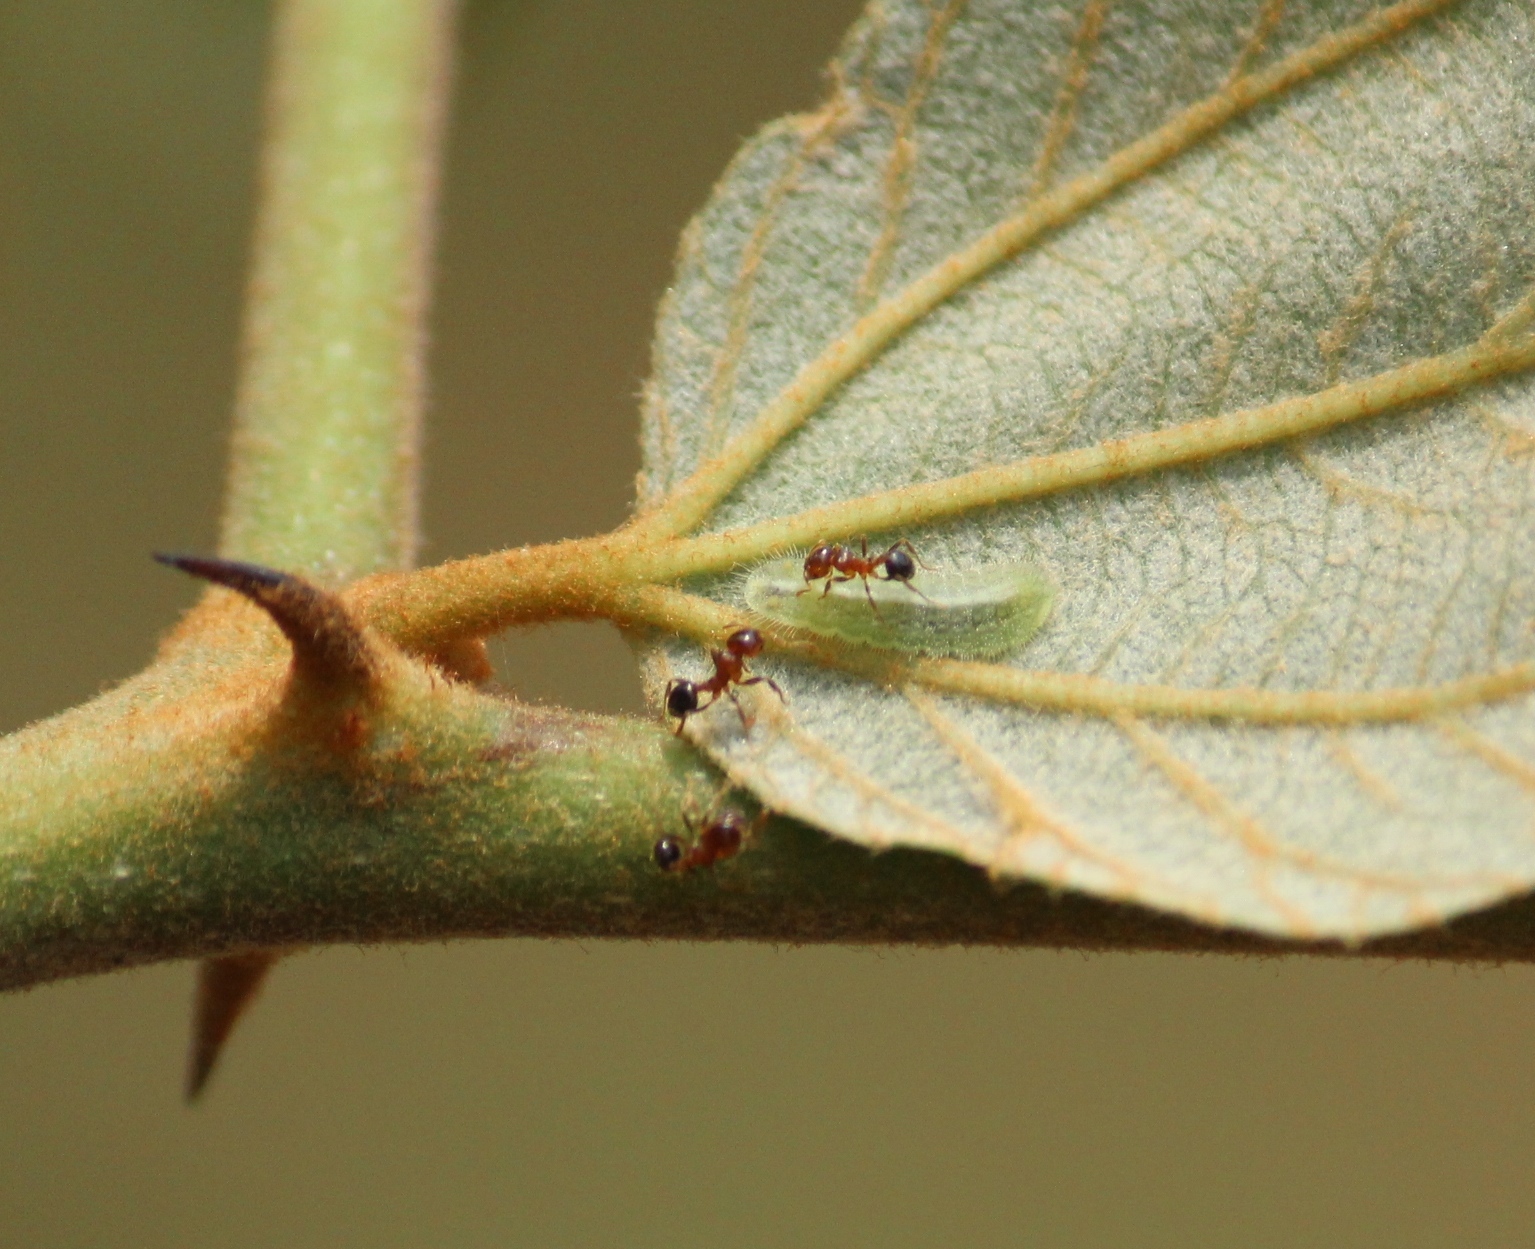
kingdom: Animalia
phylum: Arthropoda
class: Insecta
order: Lepidoptera
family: Lycaenidae
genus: Castalius
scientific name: Castalius rosimon
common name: Common pierrot
